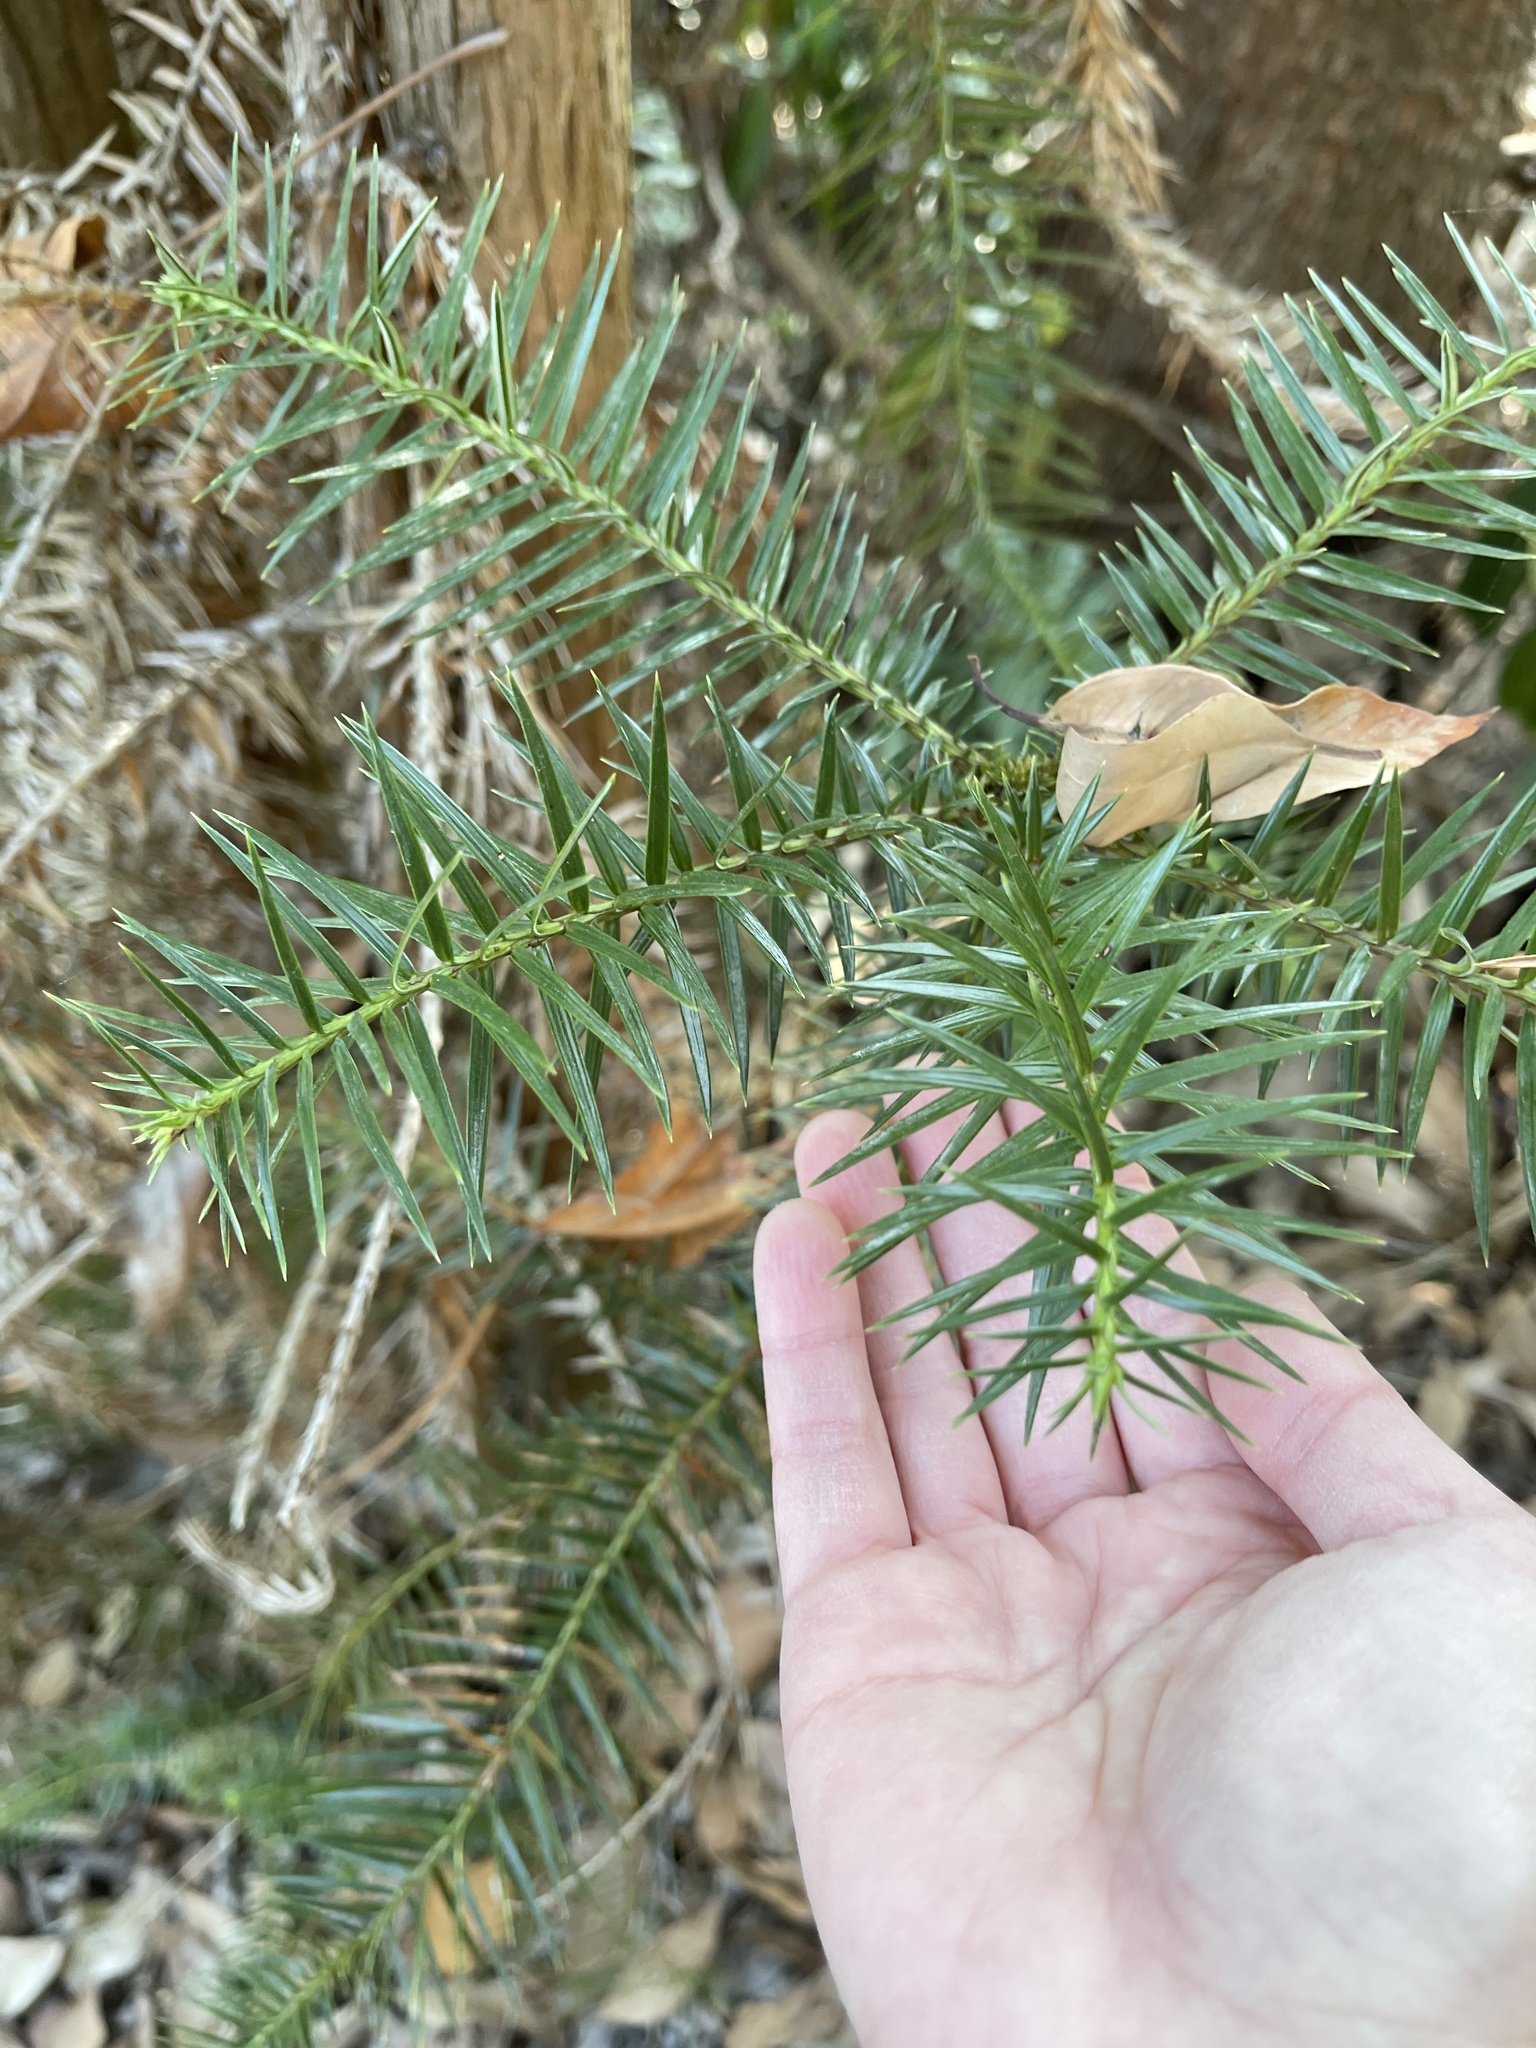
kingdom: Plantae
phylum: Tracheophyta
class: Pinopsida
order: Pinales
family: Cupressaceae
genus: Cunninghamia
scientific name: Cunninghamia lanceolata
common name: Chinese fir
